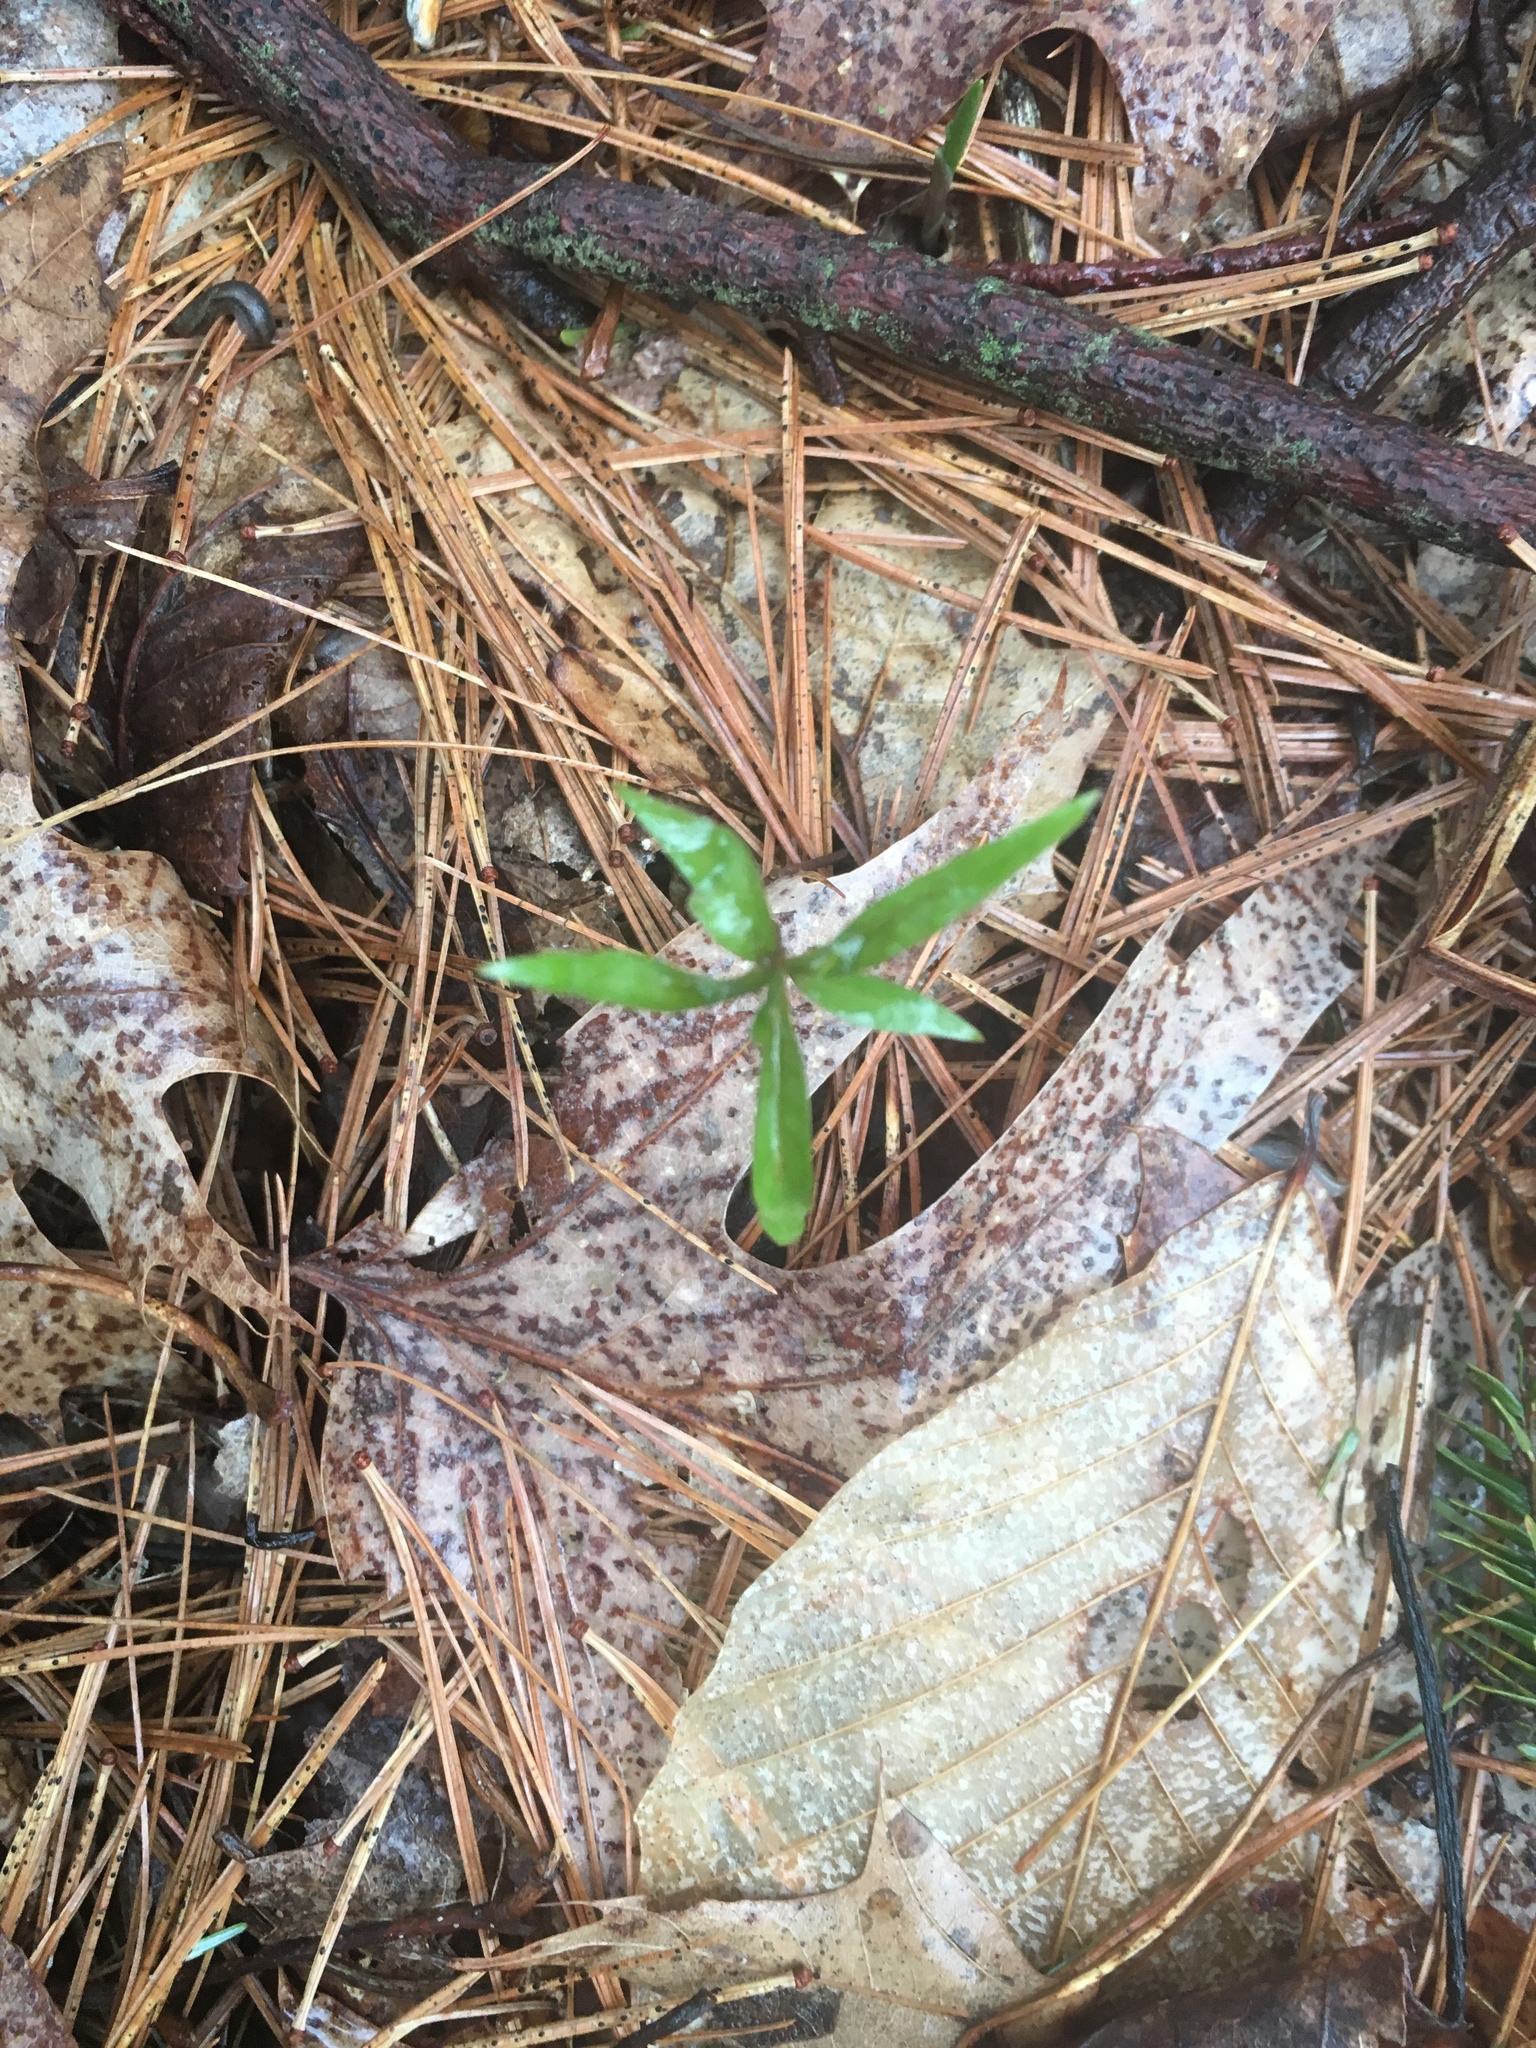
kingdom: Plantae
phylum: Tracheophyta
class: Magnoliopsida
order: Ericales
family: Primulaceae
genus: Lysimachia
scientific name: Lysimachia borealis
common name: American starflower
